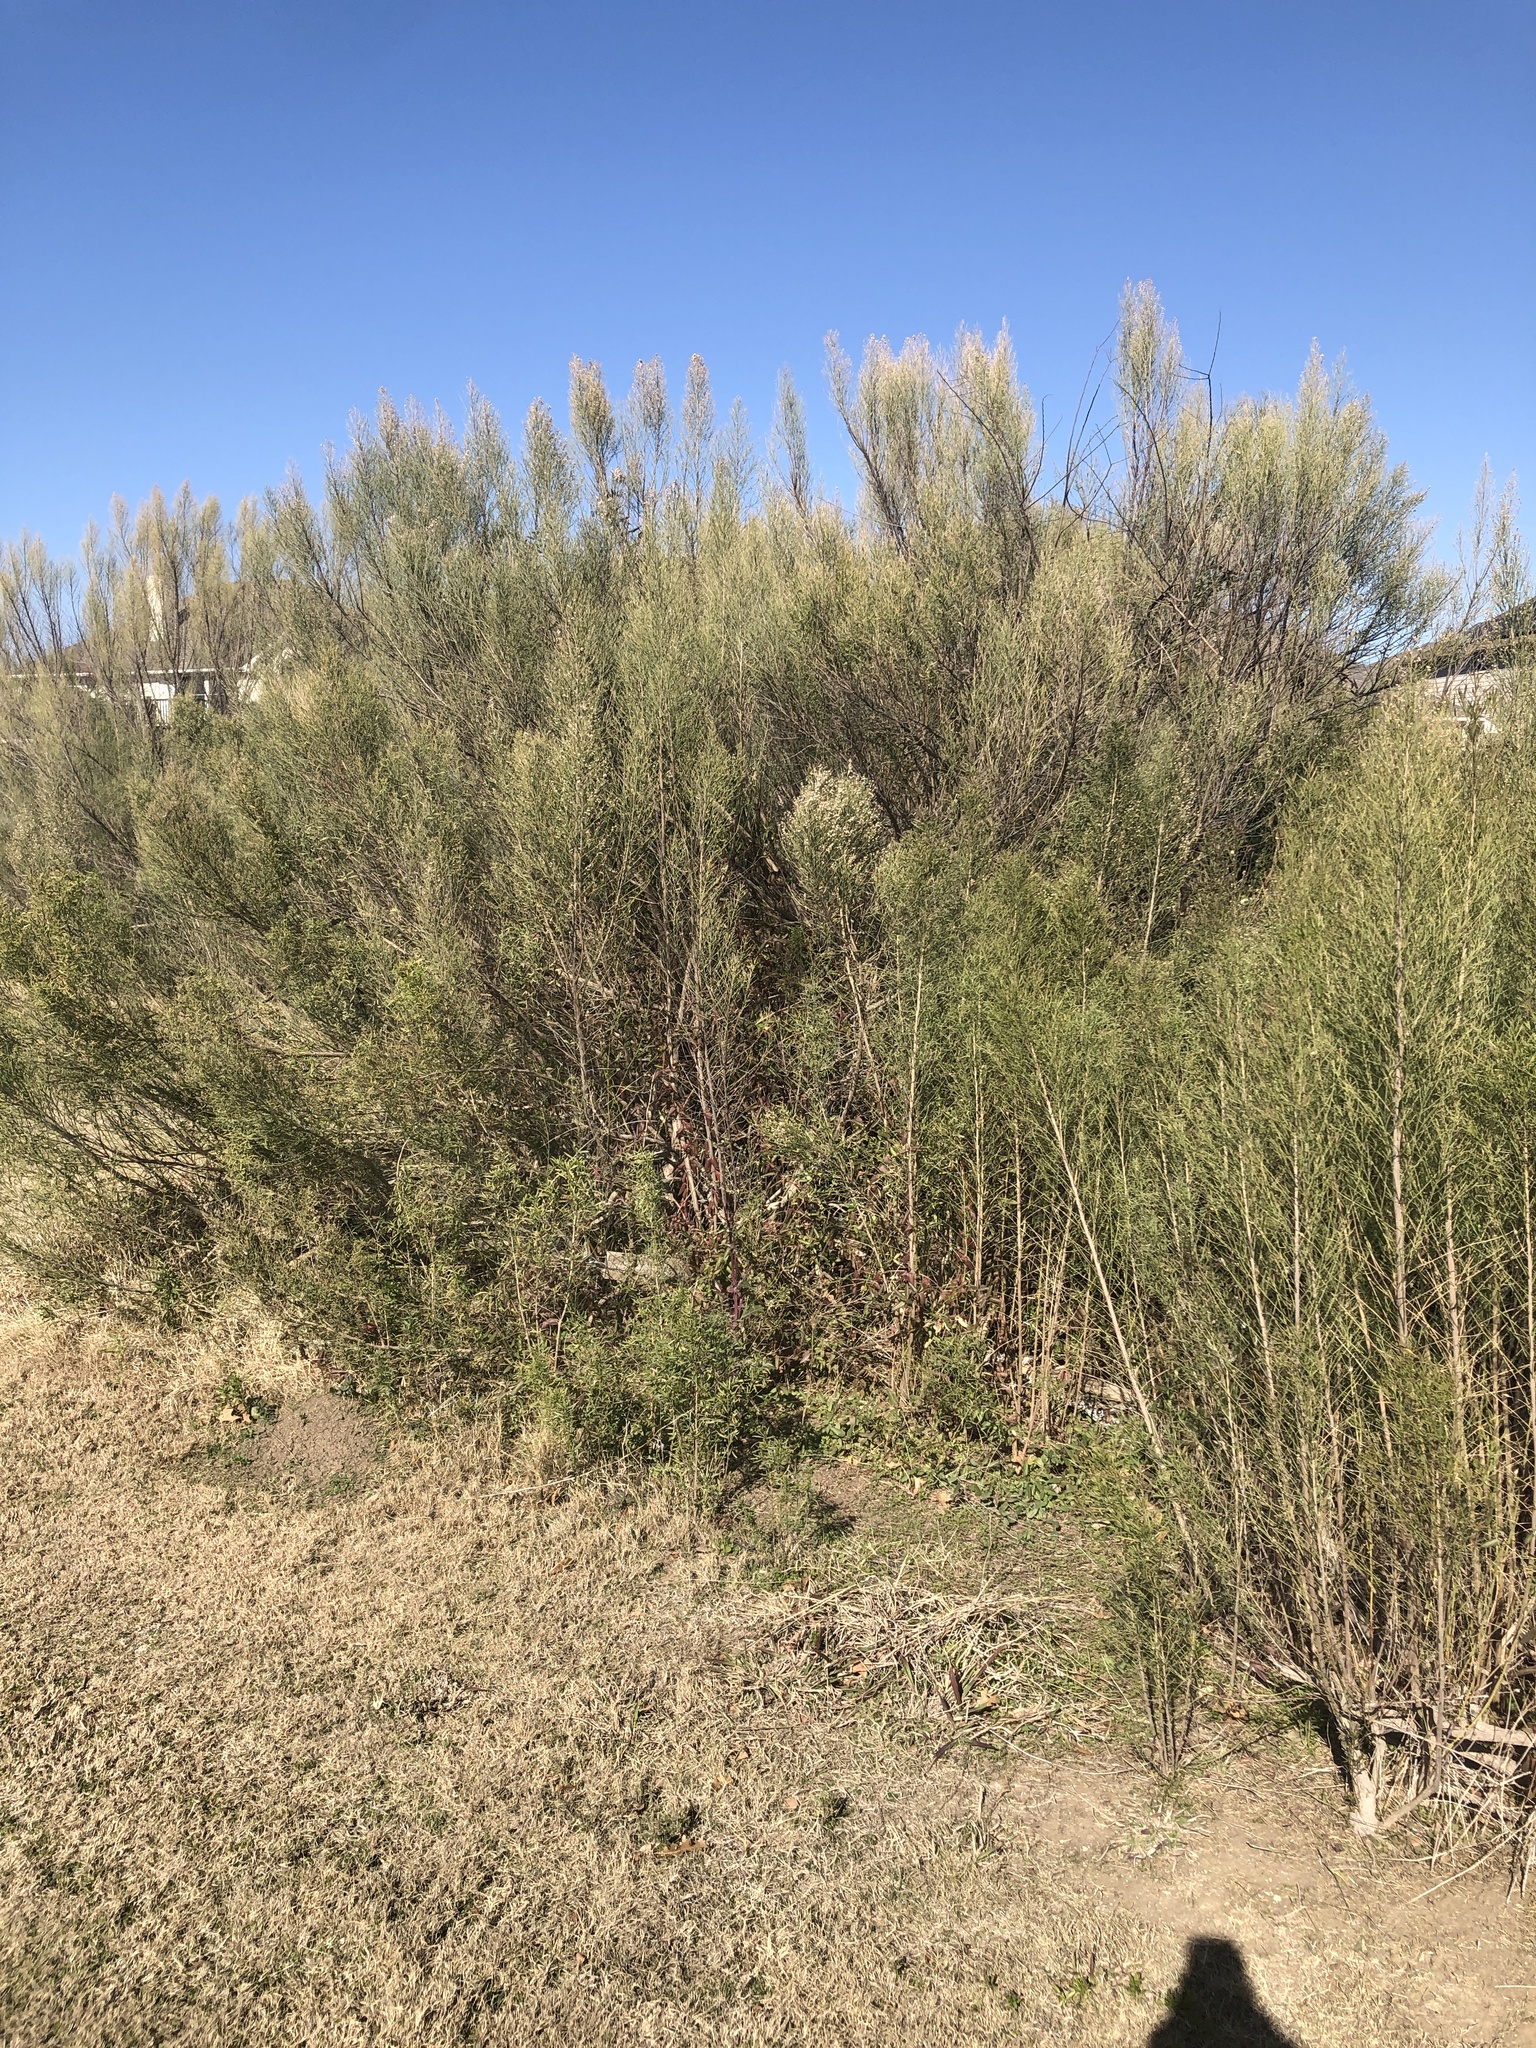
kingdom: Plantae
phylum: Tracheophyta
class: Magnoliopsida
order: Asterales
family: Asteraceae
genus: Baccharis
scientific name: Baccharis neglecta
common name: Roosevelt-weed
